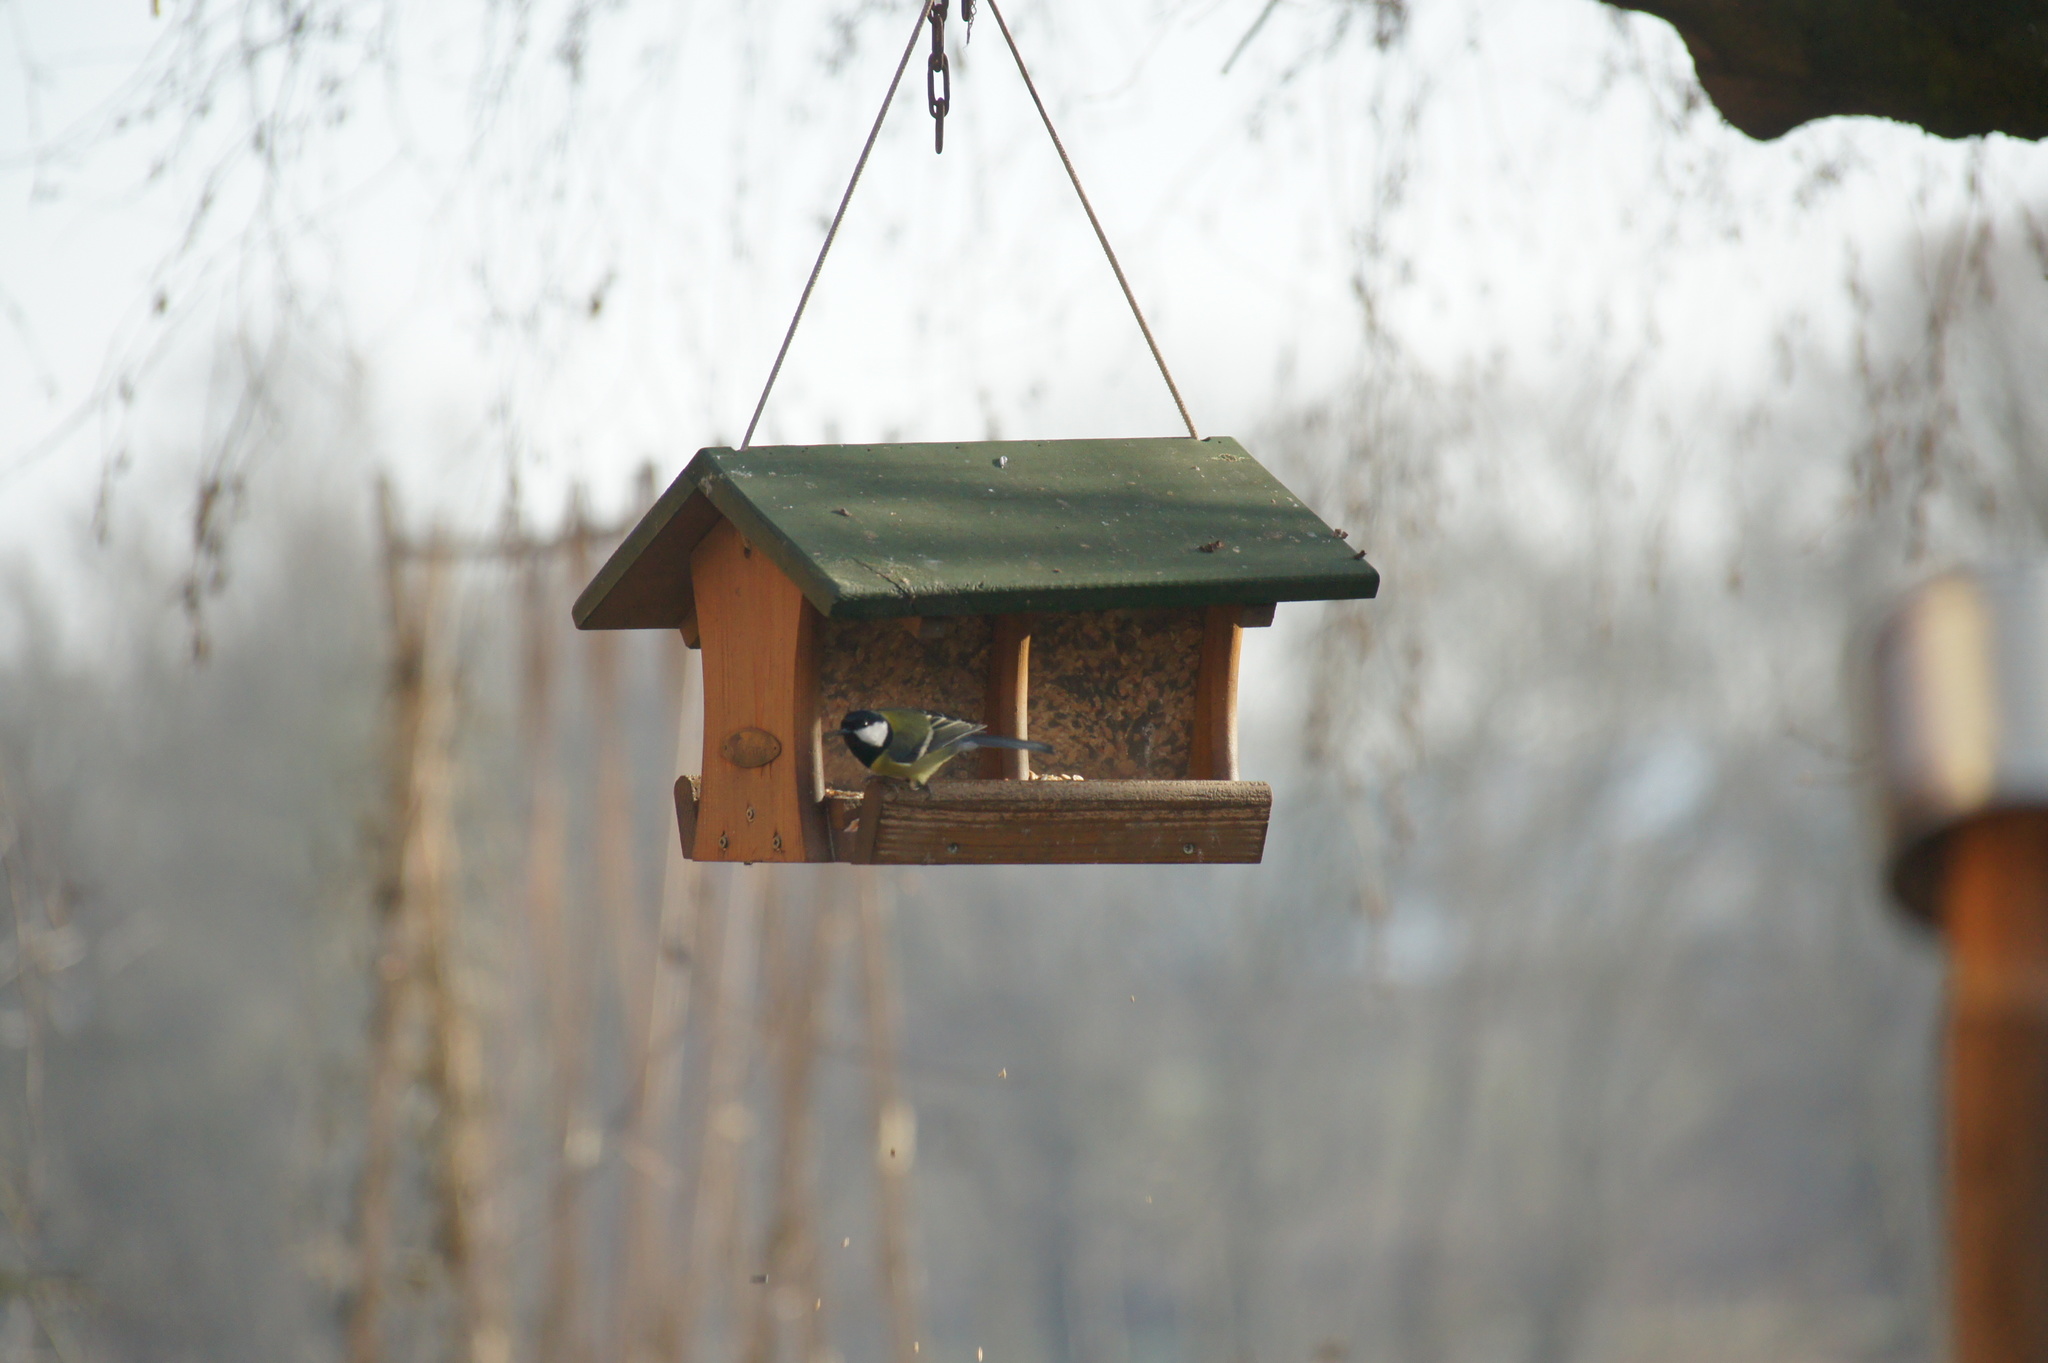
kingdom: Animalia
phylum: Chordata
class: Aves
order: Passeriformes
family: Paridae
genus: Parus
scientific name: Parus major
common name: Great tit
